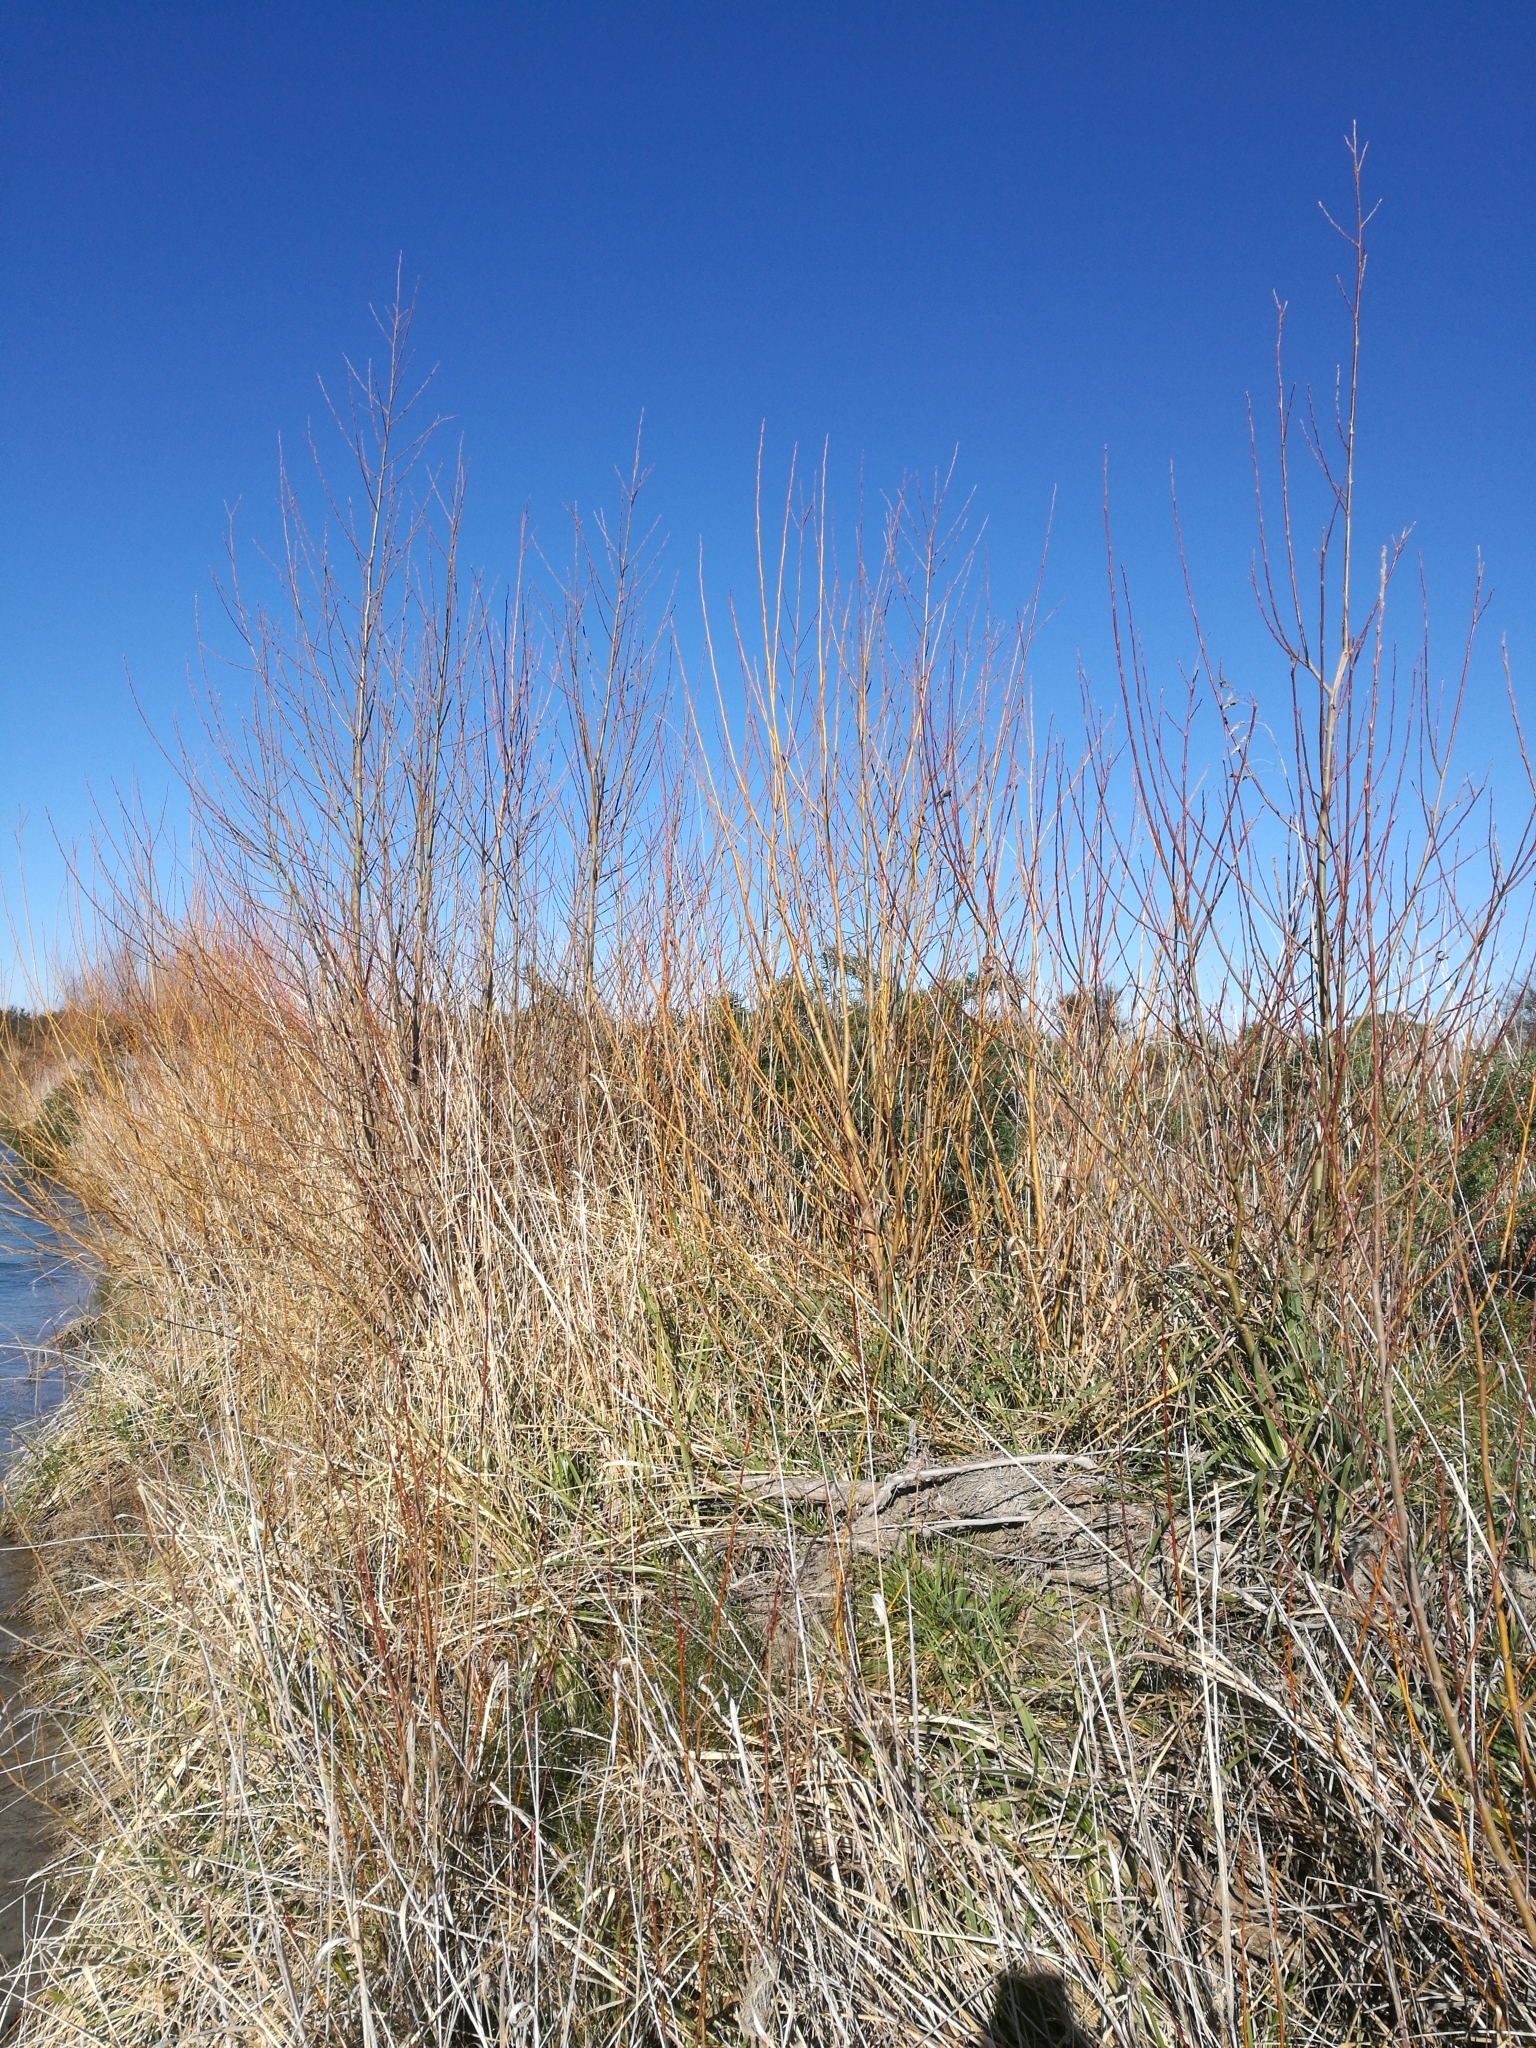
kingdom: Plantae
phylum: Tracheophyta
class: Magnoliopsida
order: Malpighiales
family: Salicaceae
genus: Salix
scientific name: Salix fragilis
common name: Crack willow
